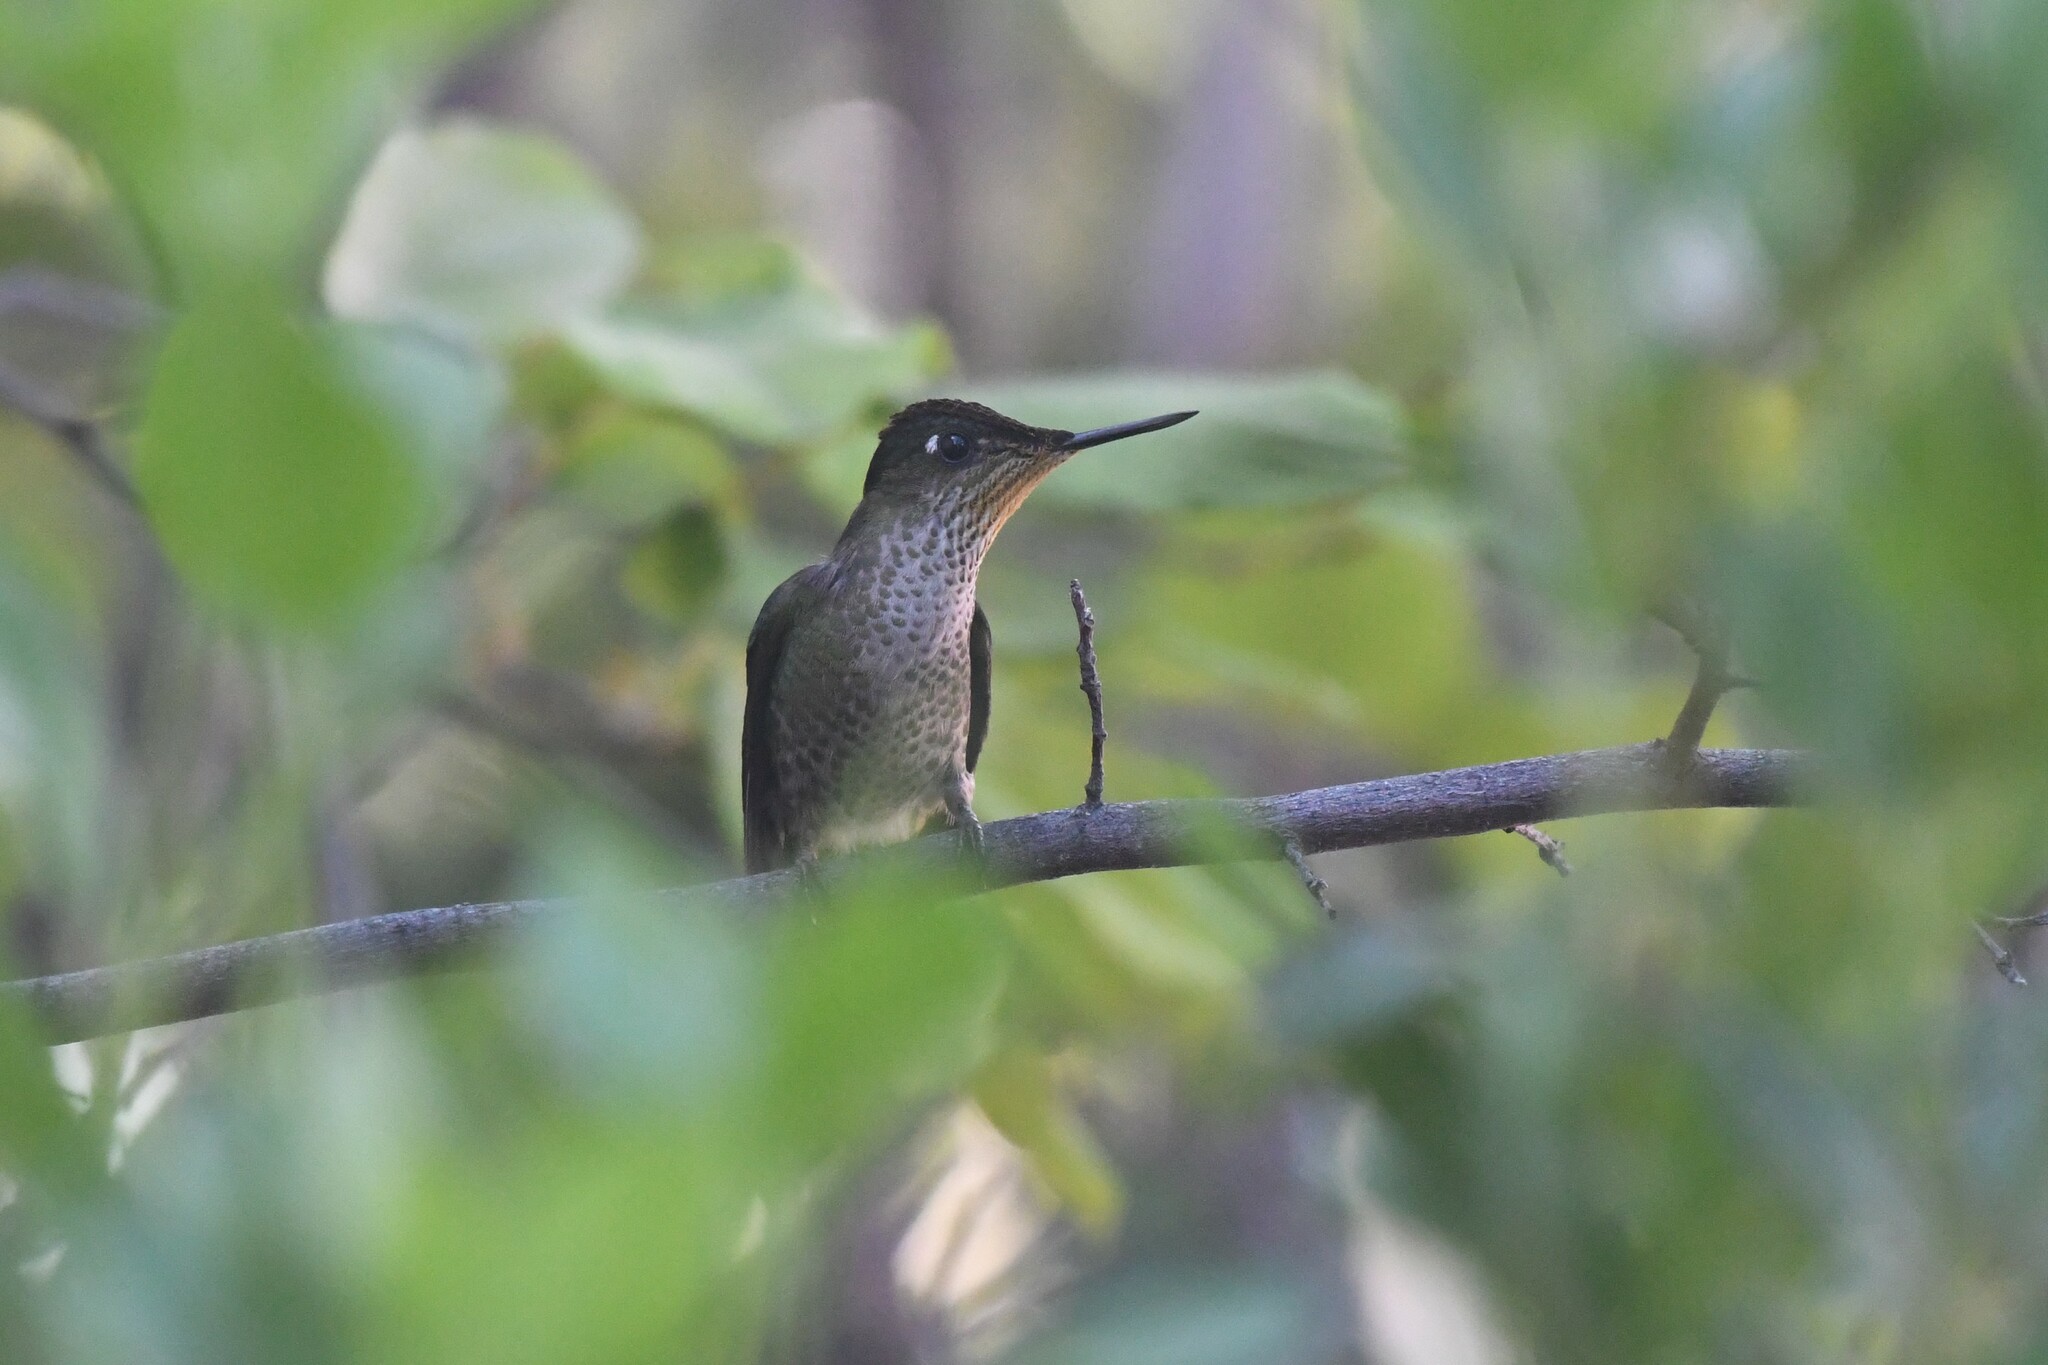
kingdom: Animalia
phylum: Chordata
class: Aves
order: Apodiformes
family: Trochilidae
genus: Sephanoides
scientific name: Sephanoides sephaniodes
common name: Green-backed firecrown
